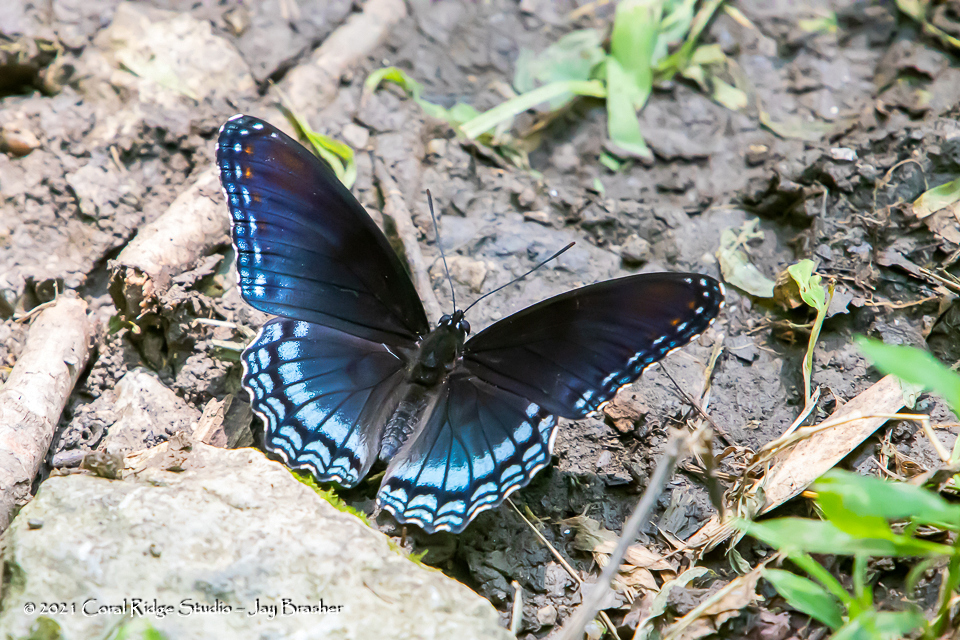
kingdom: Animalia
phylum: Arthropoda
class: Insecta
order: Lepidoptera
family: Nymphalidae
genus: Limenitis
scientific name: Limenitis astyanax
